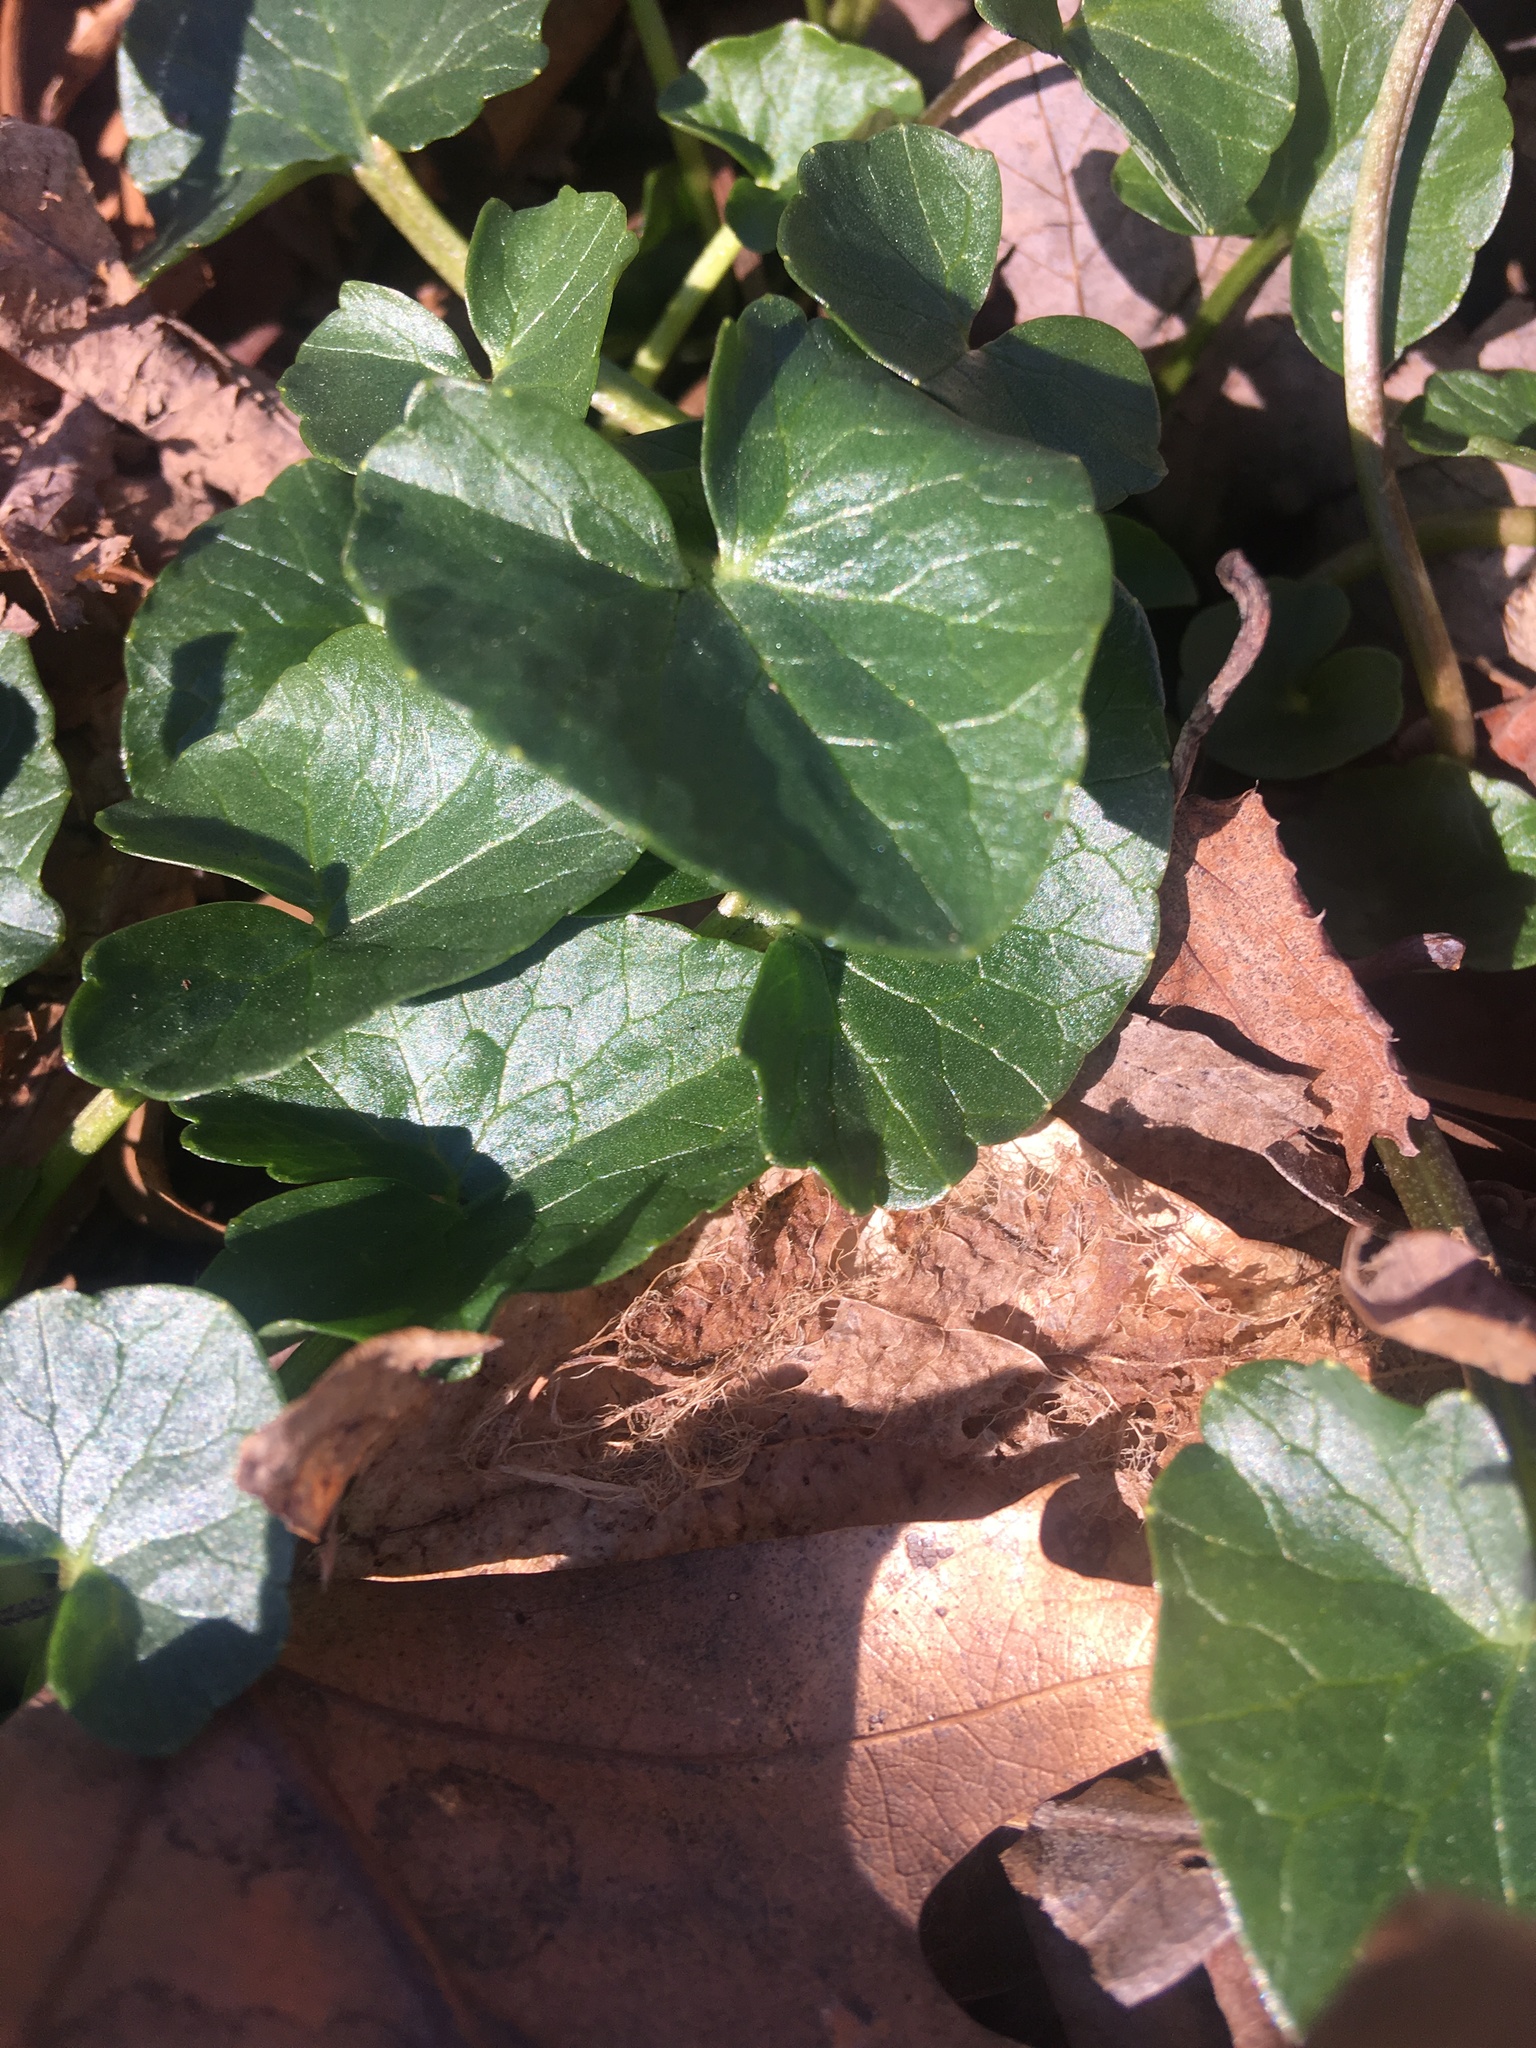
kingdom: Plantae
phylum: Tracheophyta
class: Magnoliopsida
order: Ranunculales
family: Ranunculaceae
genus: Ficaria
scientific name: Ficaria verna
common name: Lesser celandine
